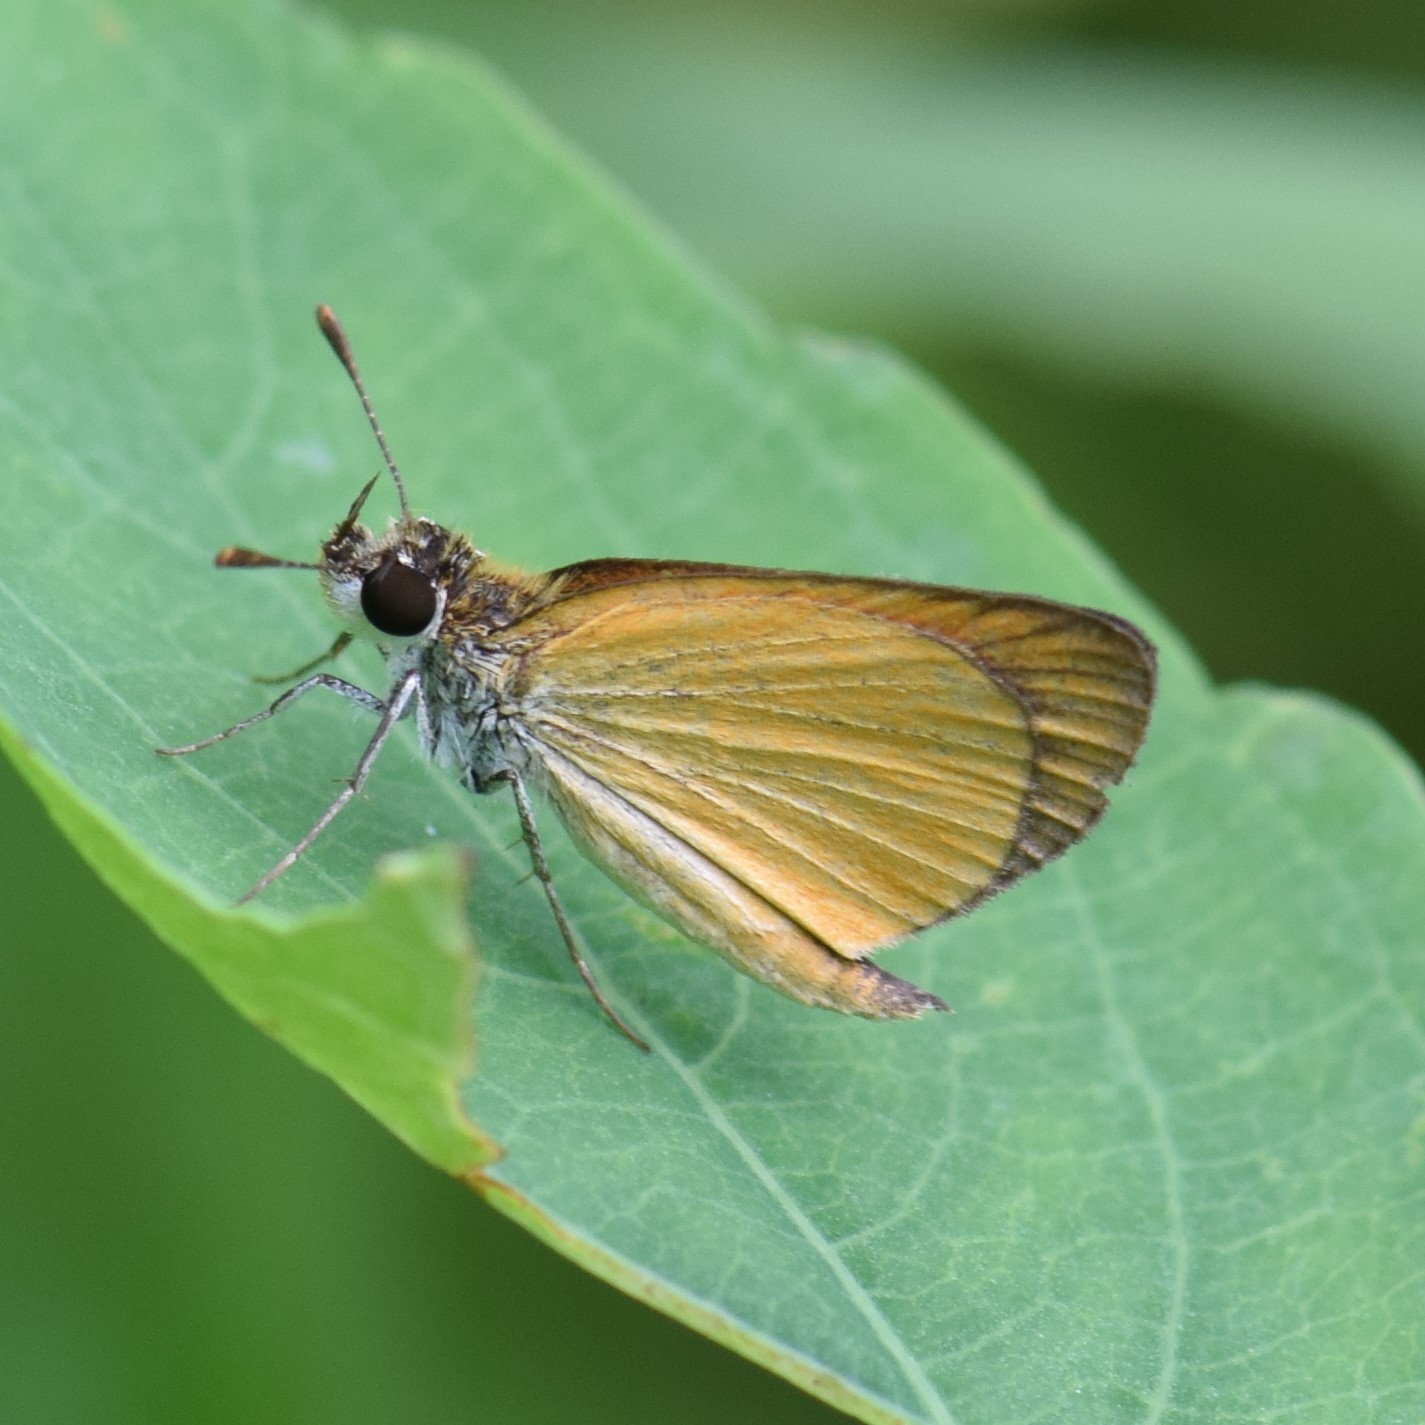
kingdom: Animalia
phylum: Arthropoda
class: Insecta
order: Lepidoptera
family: Hesperiidae
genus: Ancyloxypha
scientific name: Ancyloxypha numitor
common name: Least skipper
